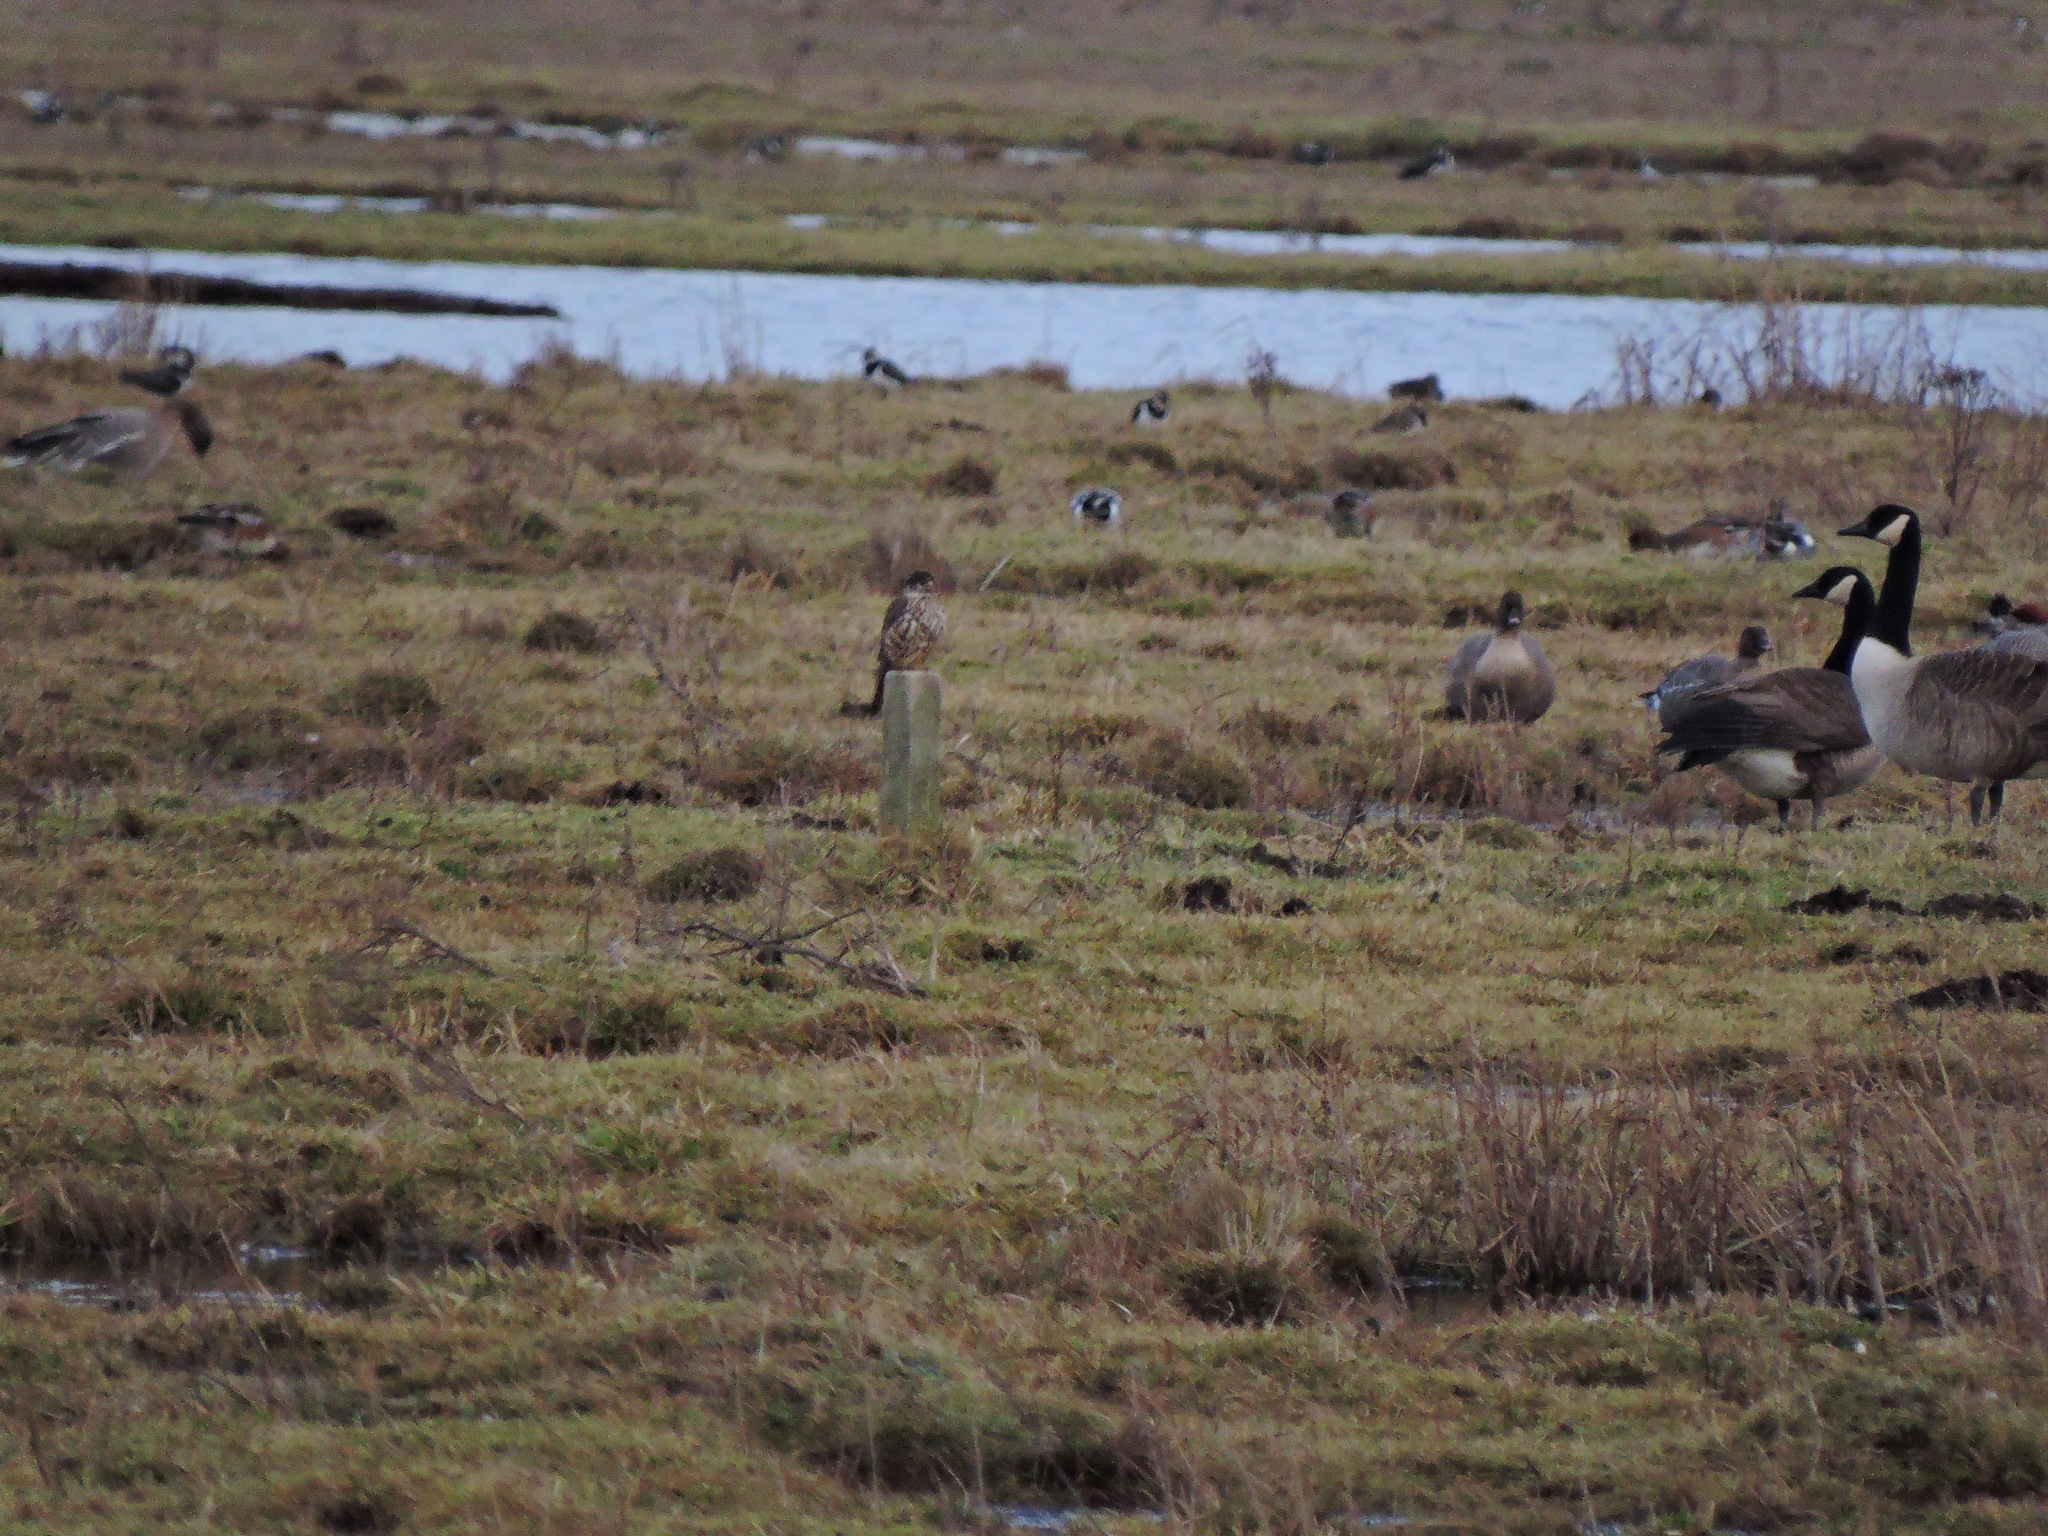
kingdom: Animalia
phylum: Chordata
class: Aves
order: Falconiformes
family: Falconidae
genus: Falco
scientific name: Falco columbarius
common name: Merlin
